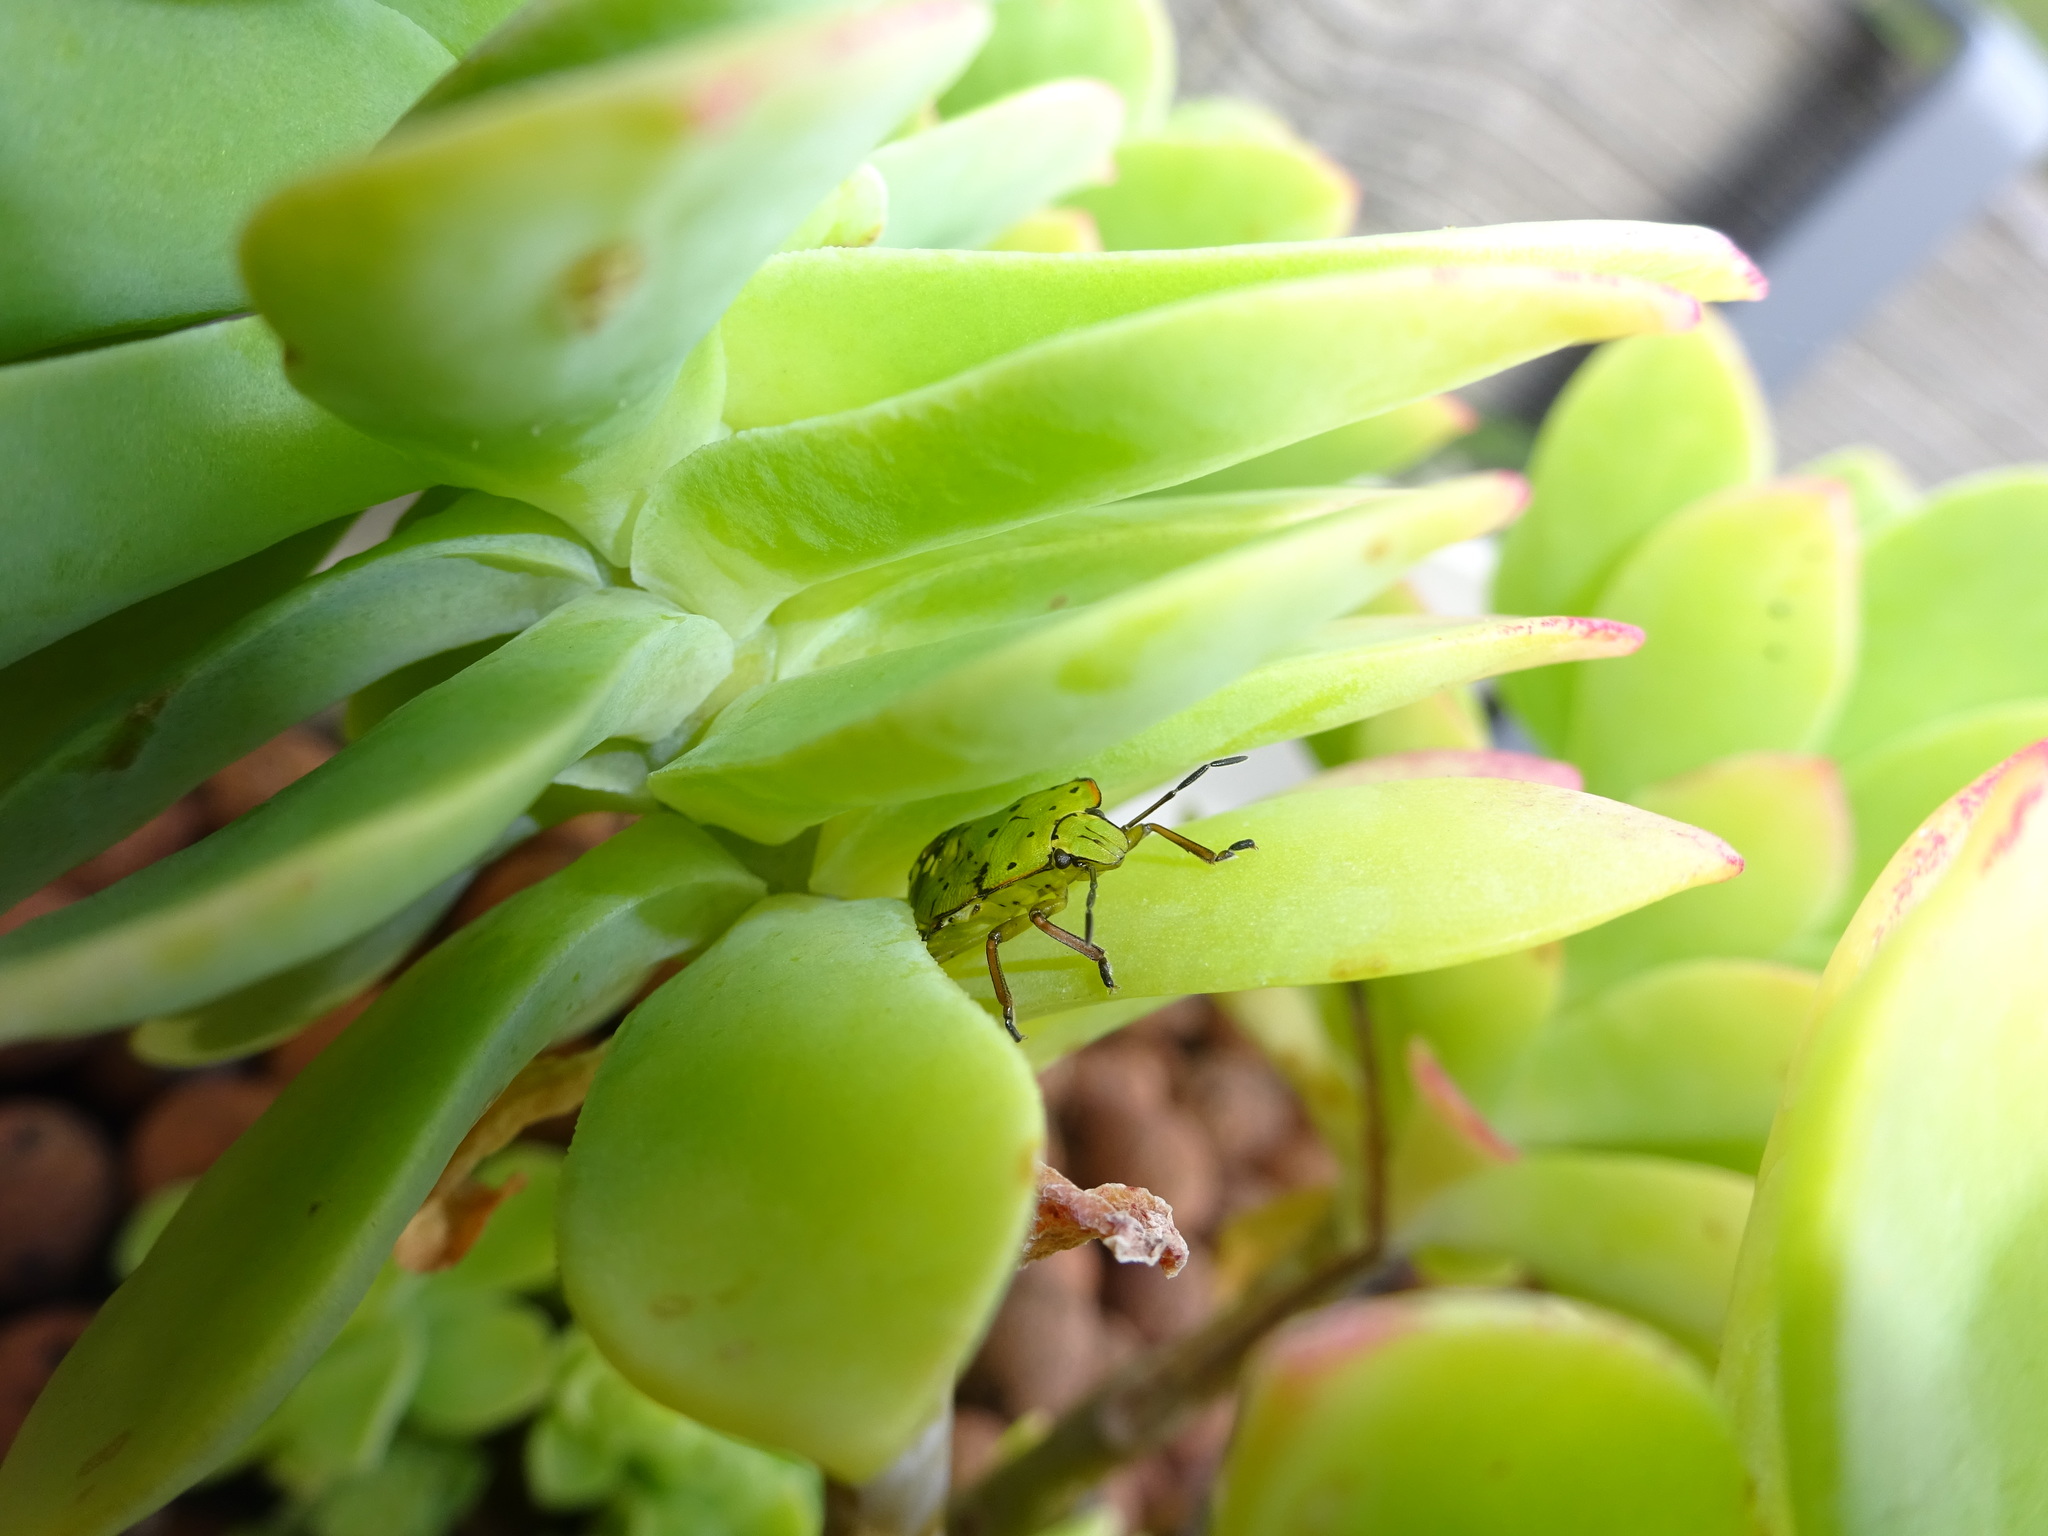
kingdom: Animalia
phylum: Arthropoda
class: Insecta
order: Hemiptera
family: Pentatomidae
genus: Nezara
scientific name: Nezara viridula
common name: Southern green stink bug
